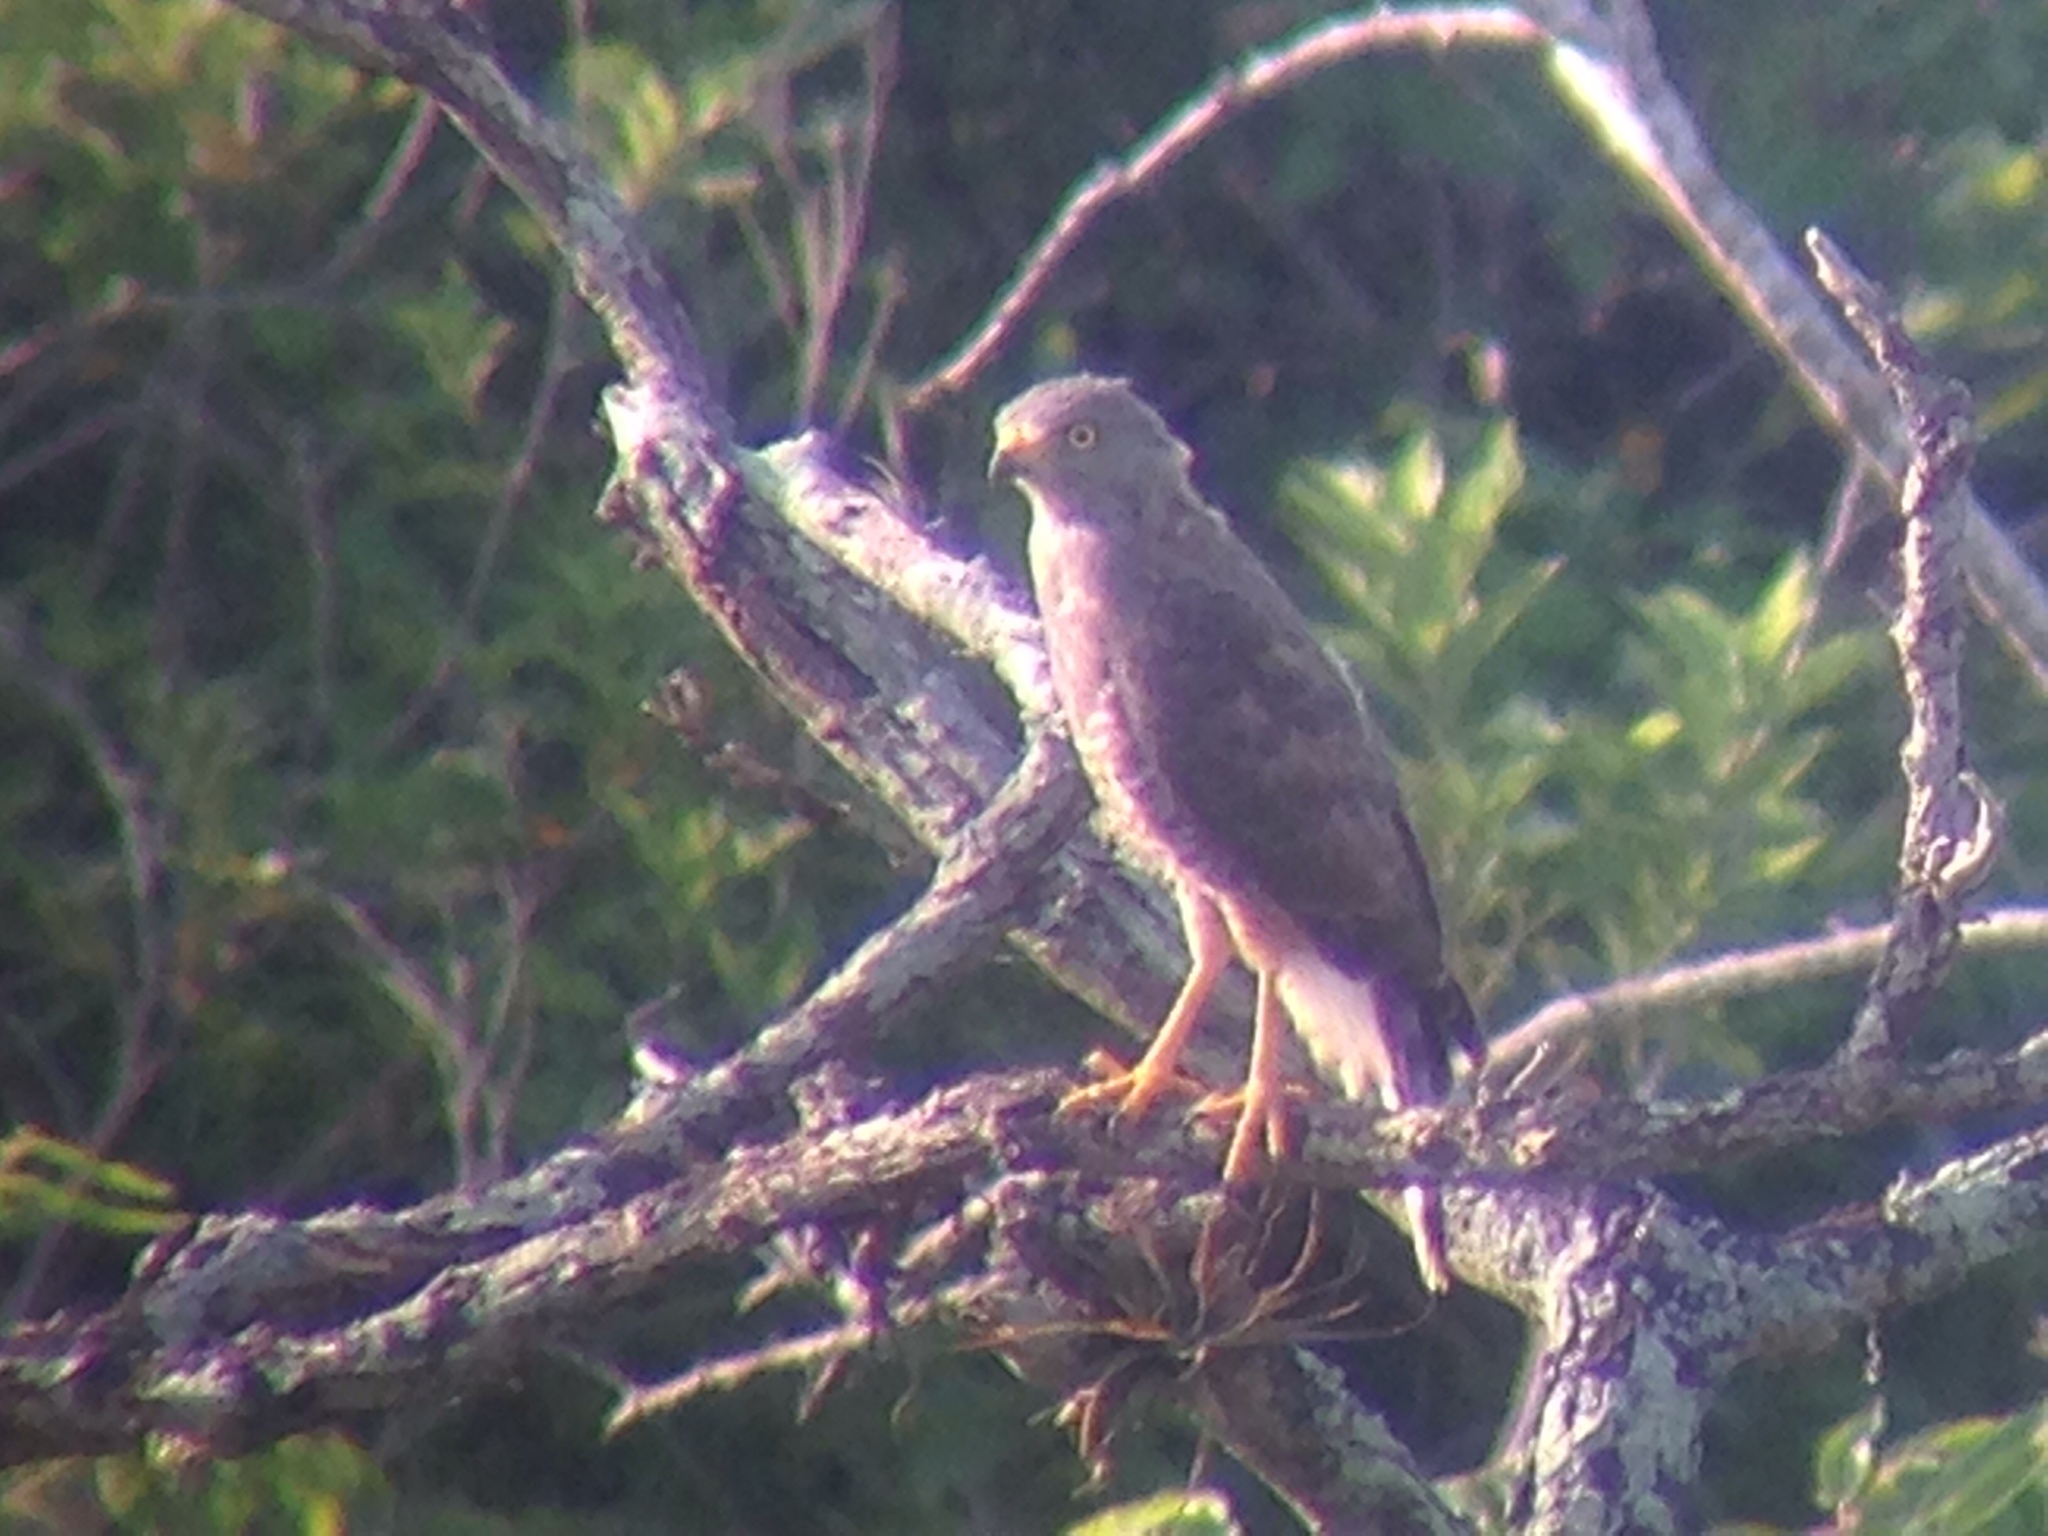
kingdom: Animalia
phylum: Chordata
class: Aves
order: Accipitriformes
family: Accipitridae
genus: Rupornis
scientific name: Rupornis magnirostris
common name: Roadside hawk
